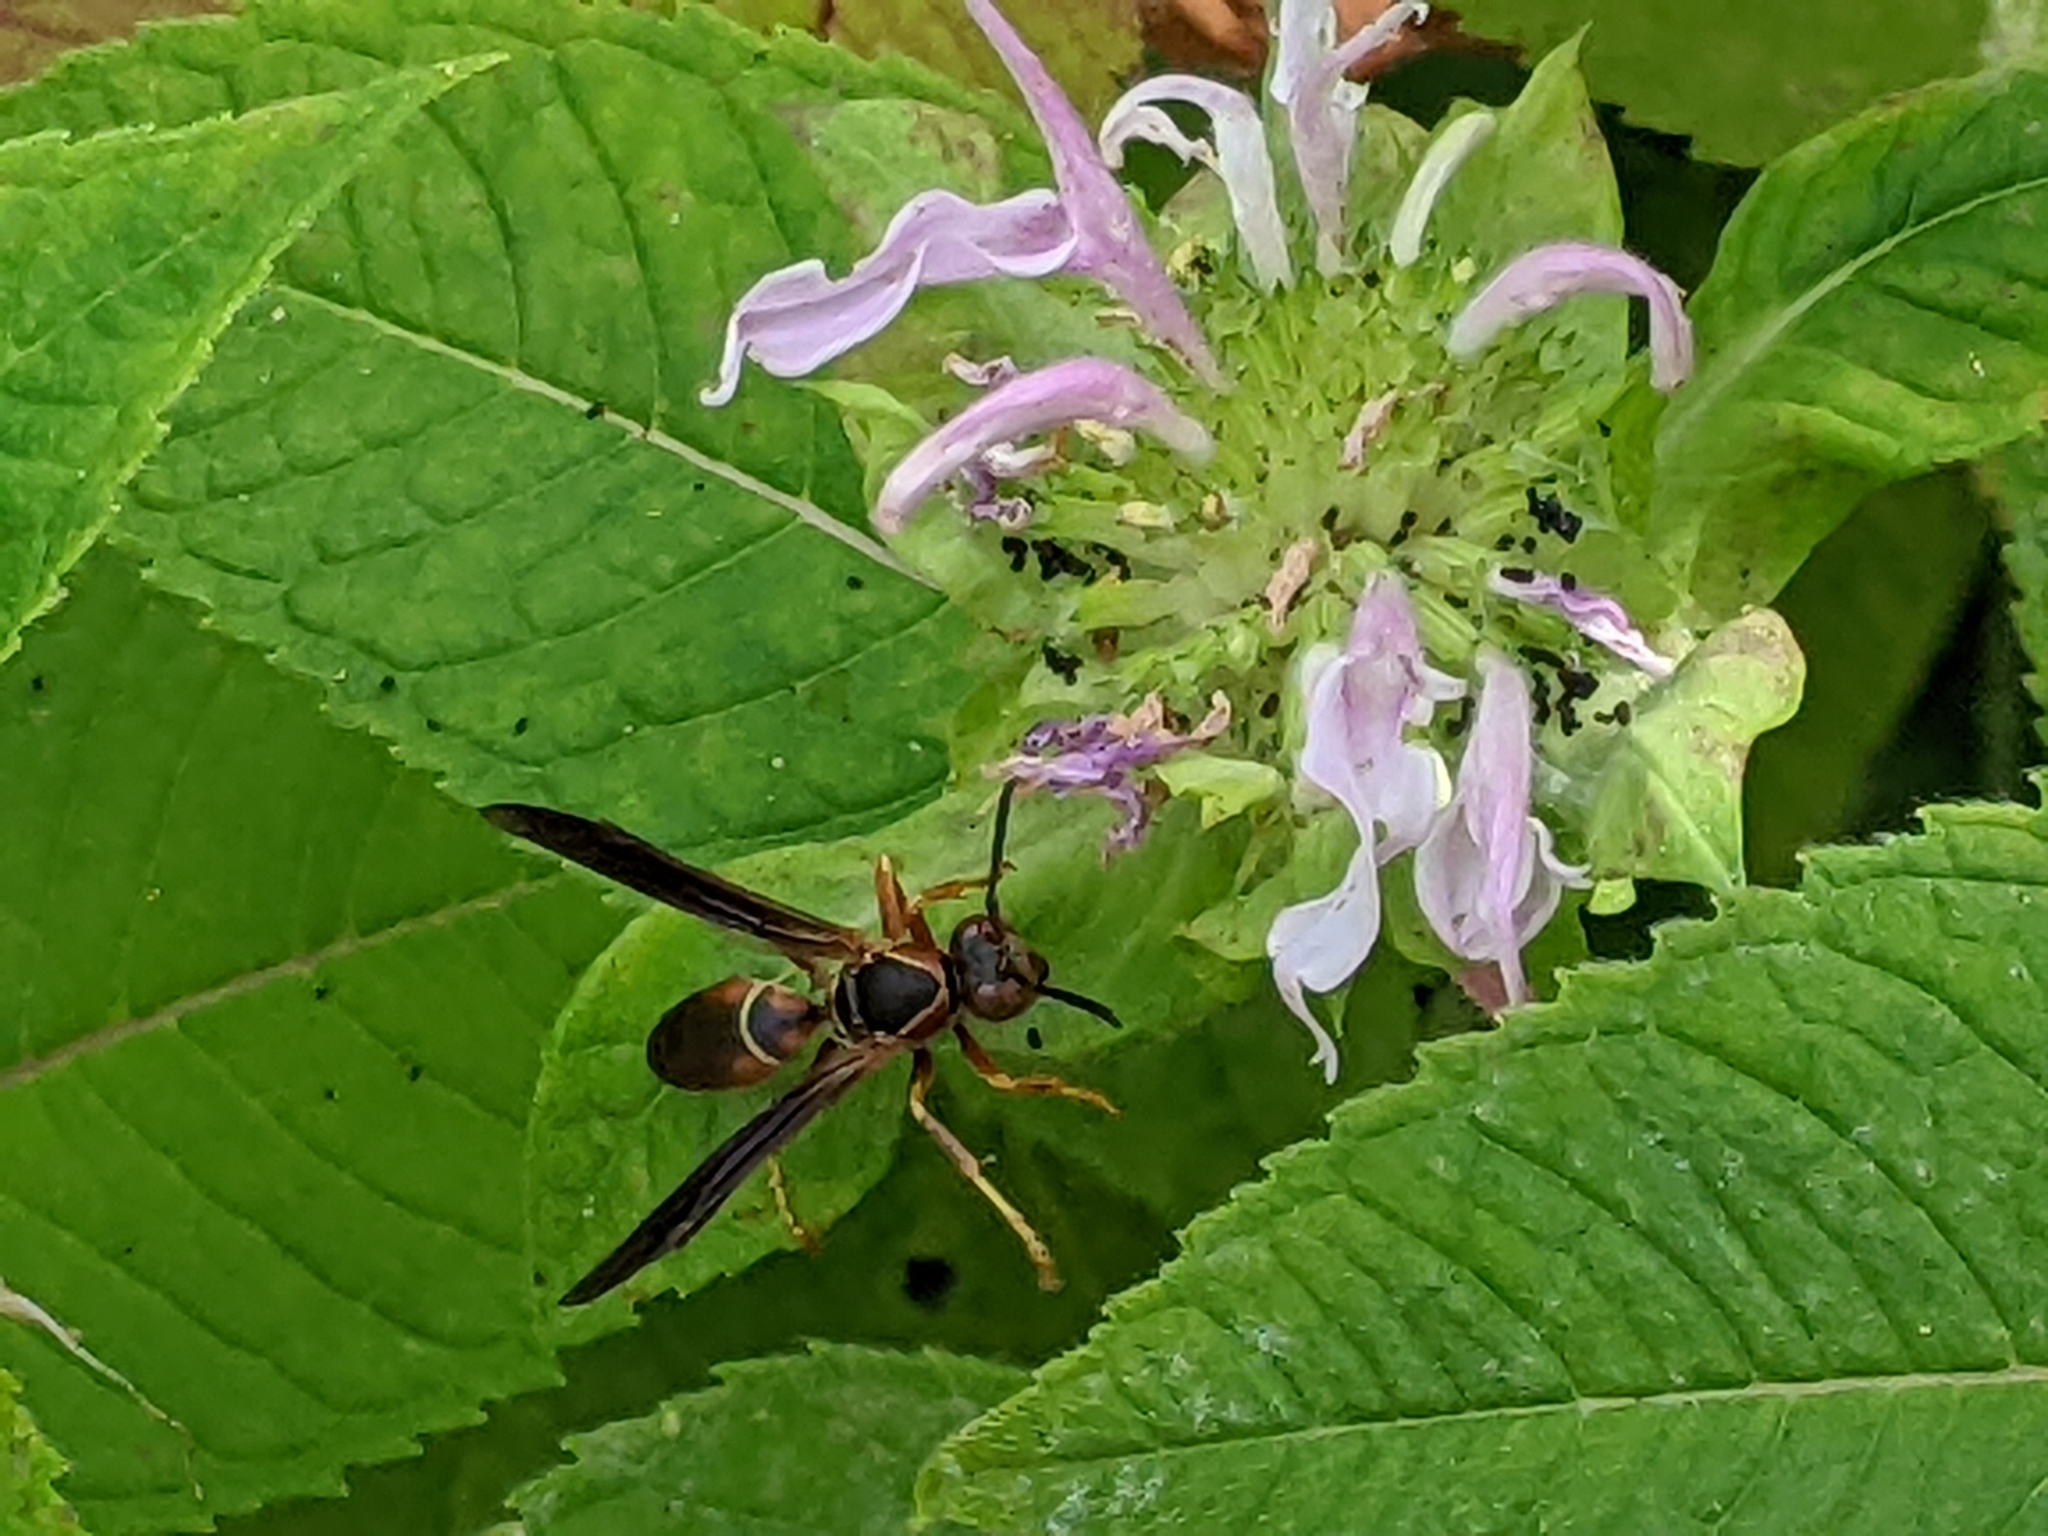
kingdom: Animalia
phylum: Arthropoda
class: Insecta
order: Hymenoptera
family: Eumenidae
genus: Polistes
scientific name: Polistes fuscatus
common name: Dark paper wasp
